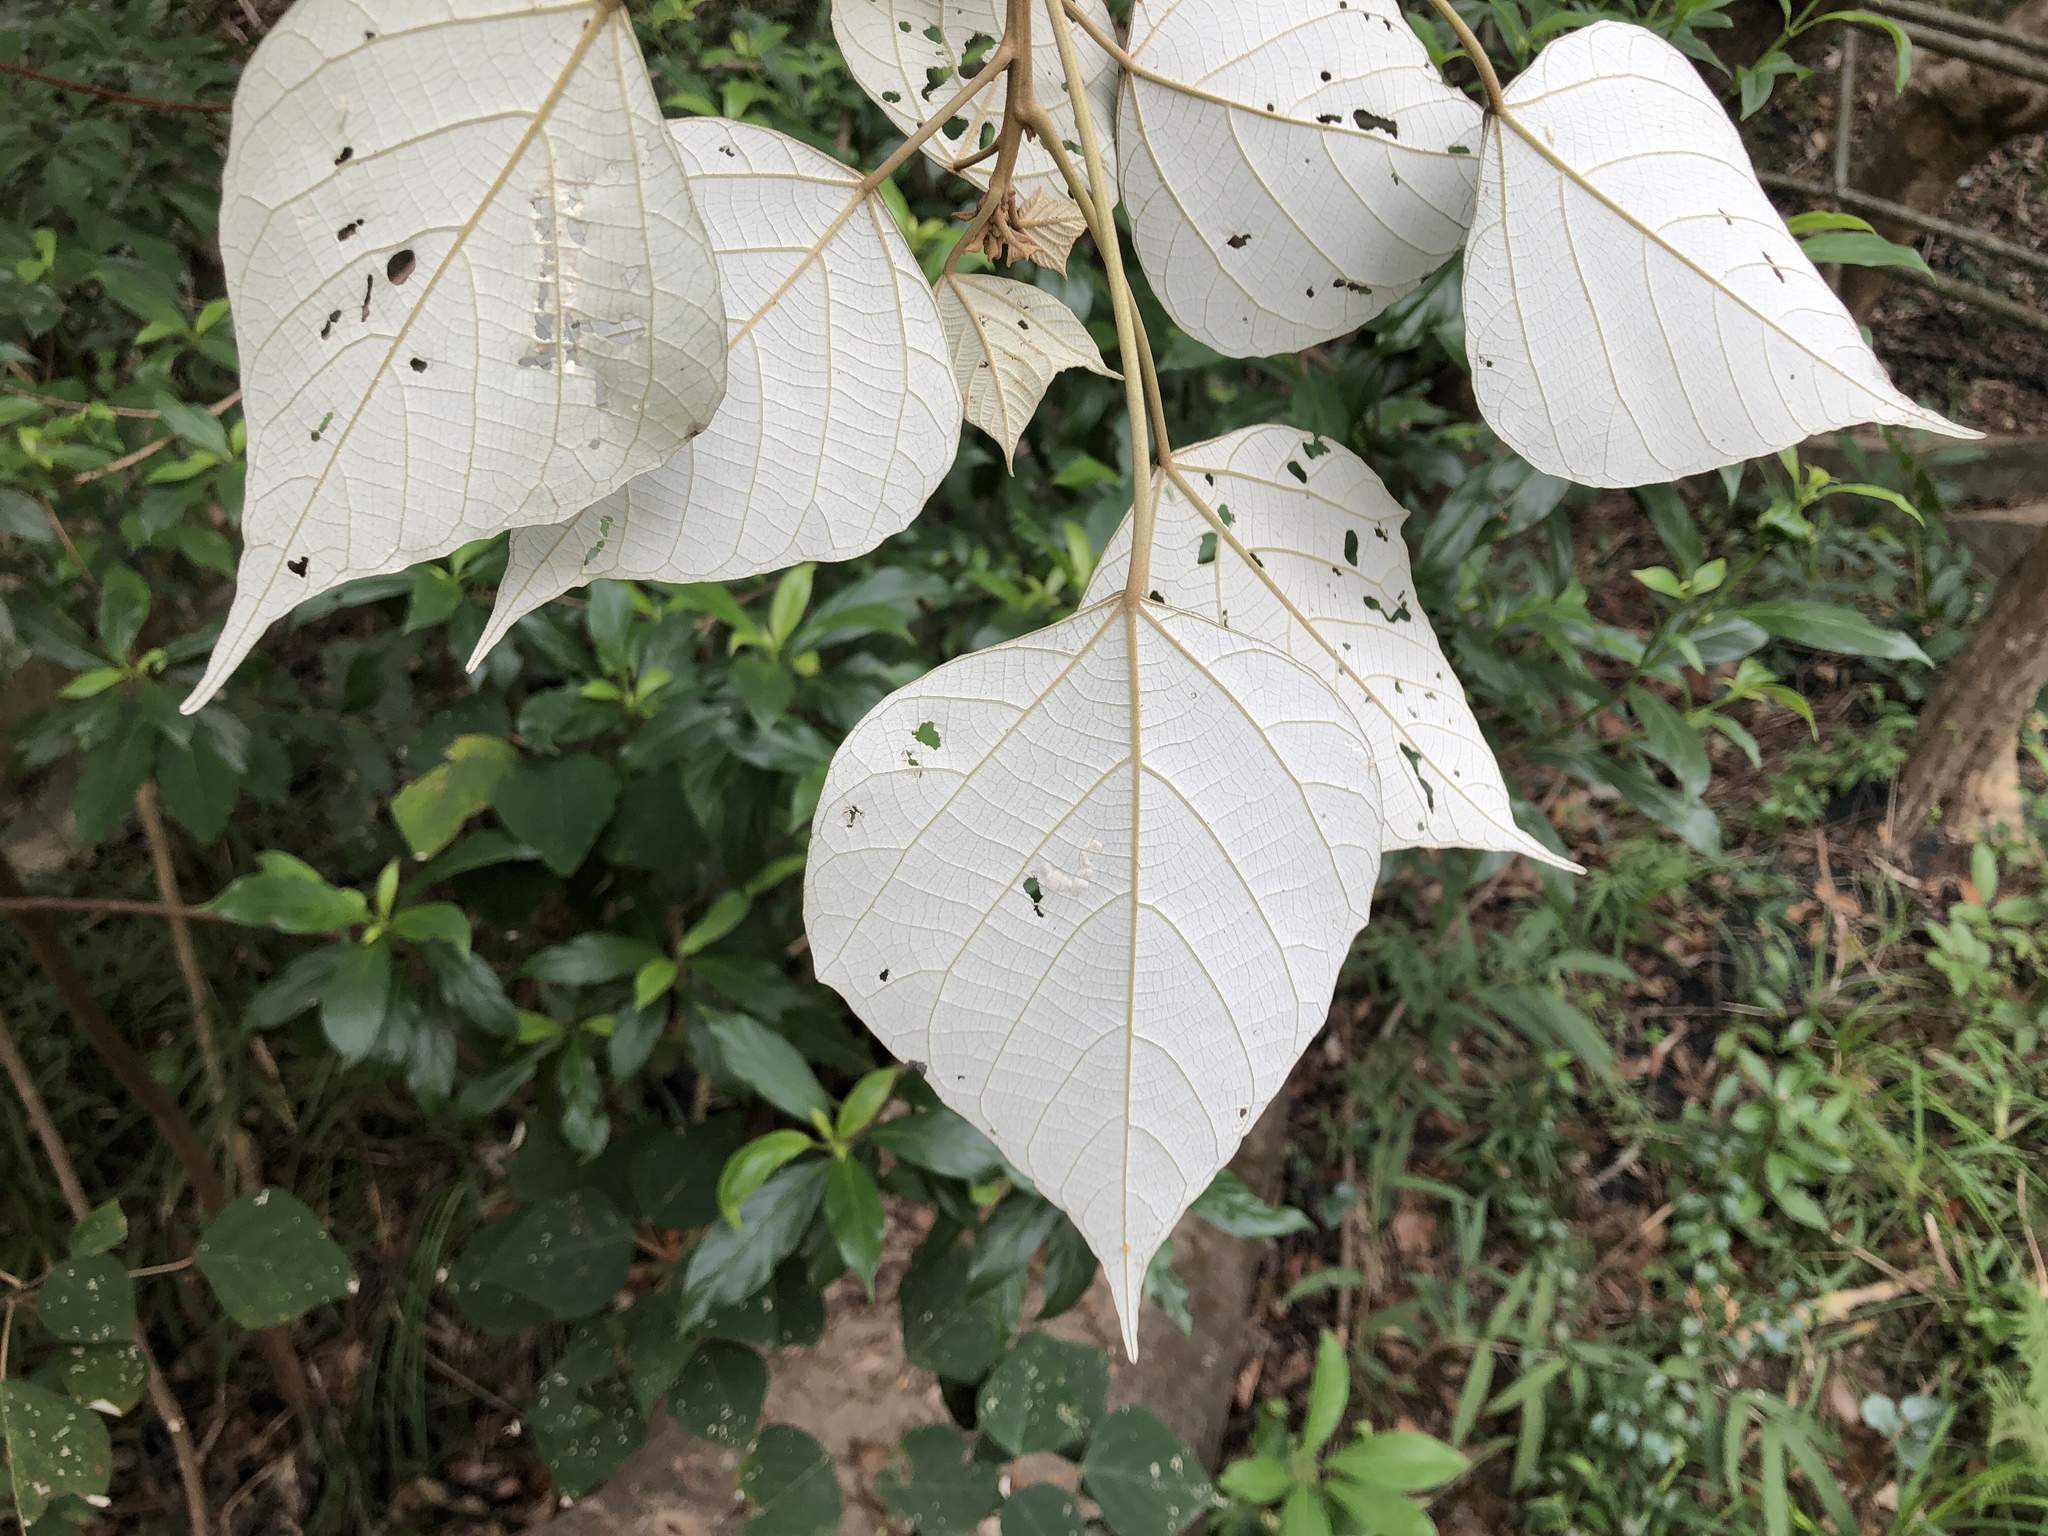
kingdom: Plantae
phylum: Tracheophyta
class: Magnoliopsida
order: Malpighiales
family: Euphorbiaceae
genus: Mallotus
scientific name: Mallotus paniculatus
